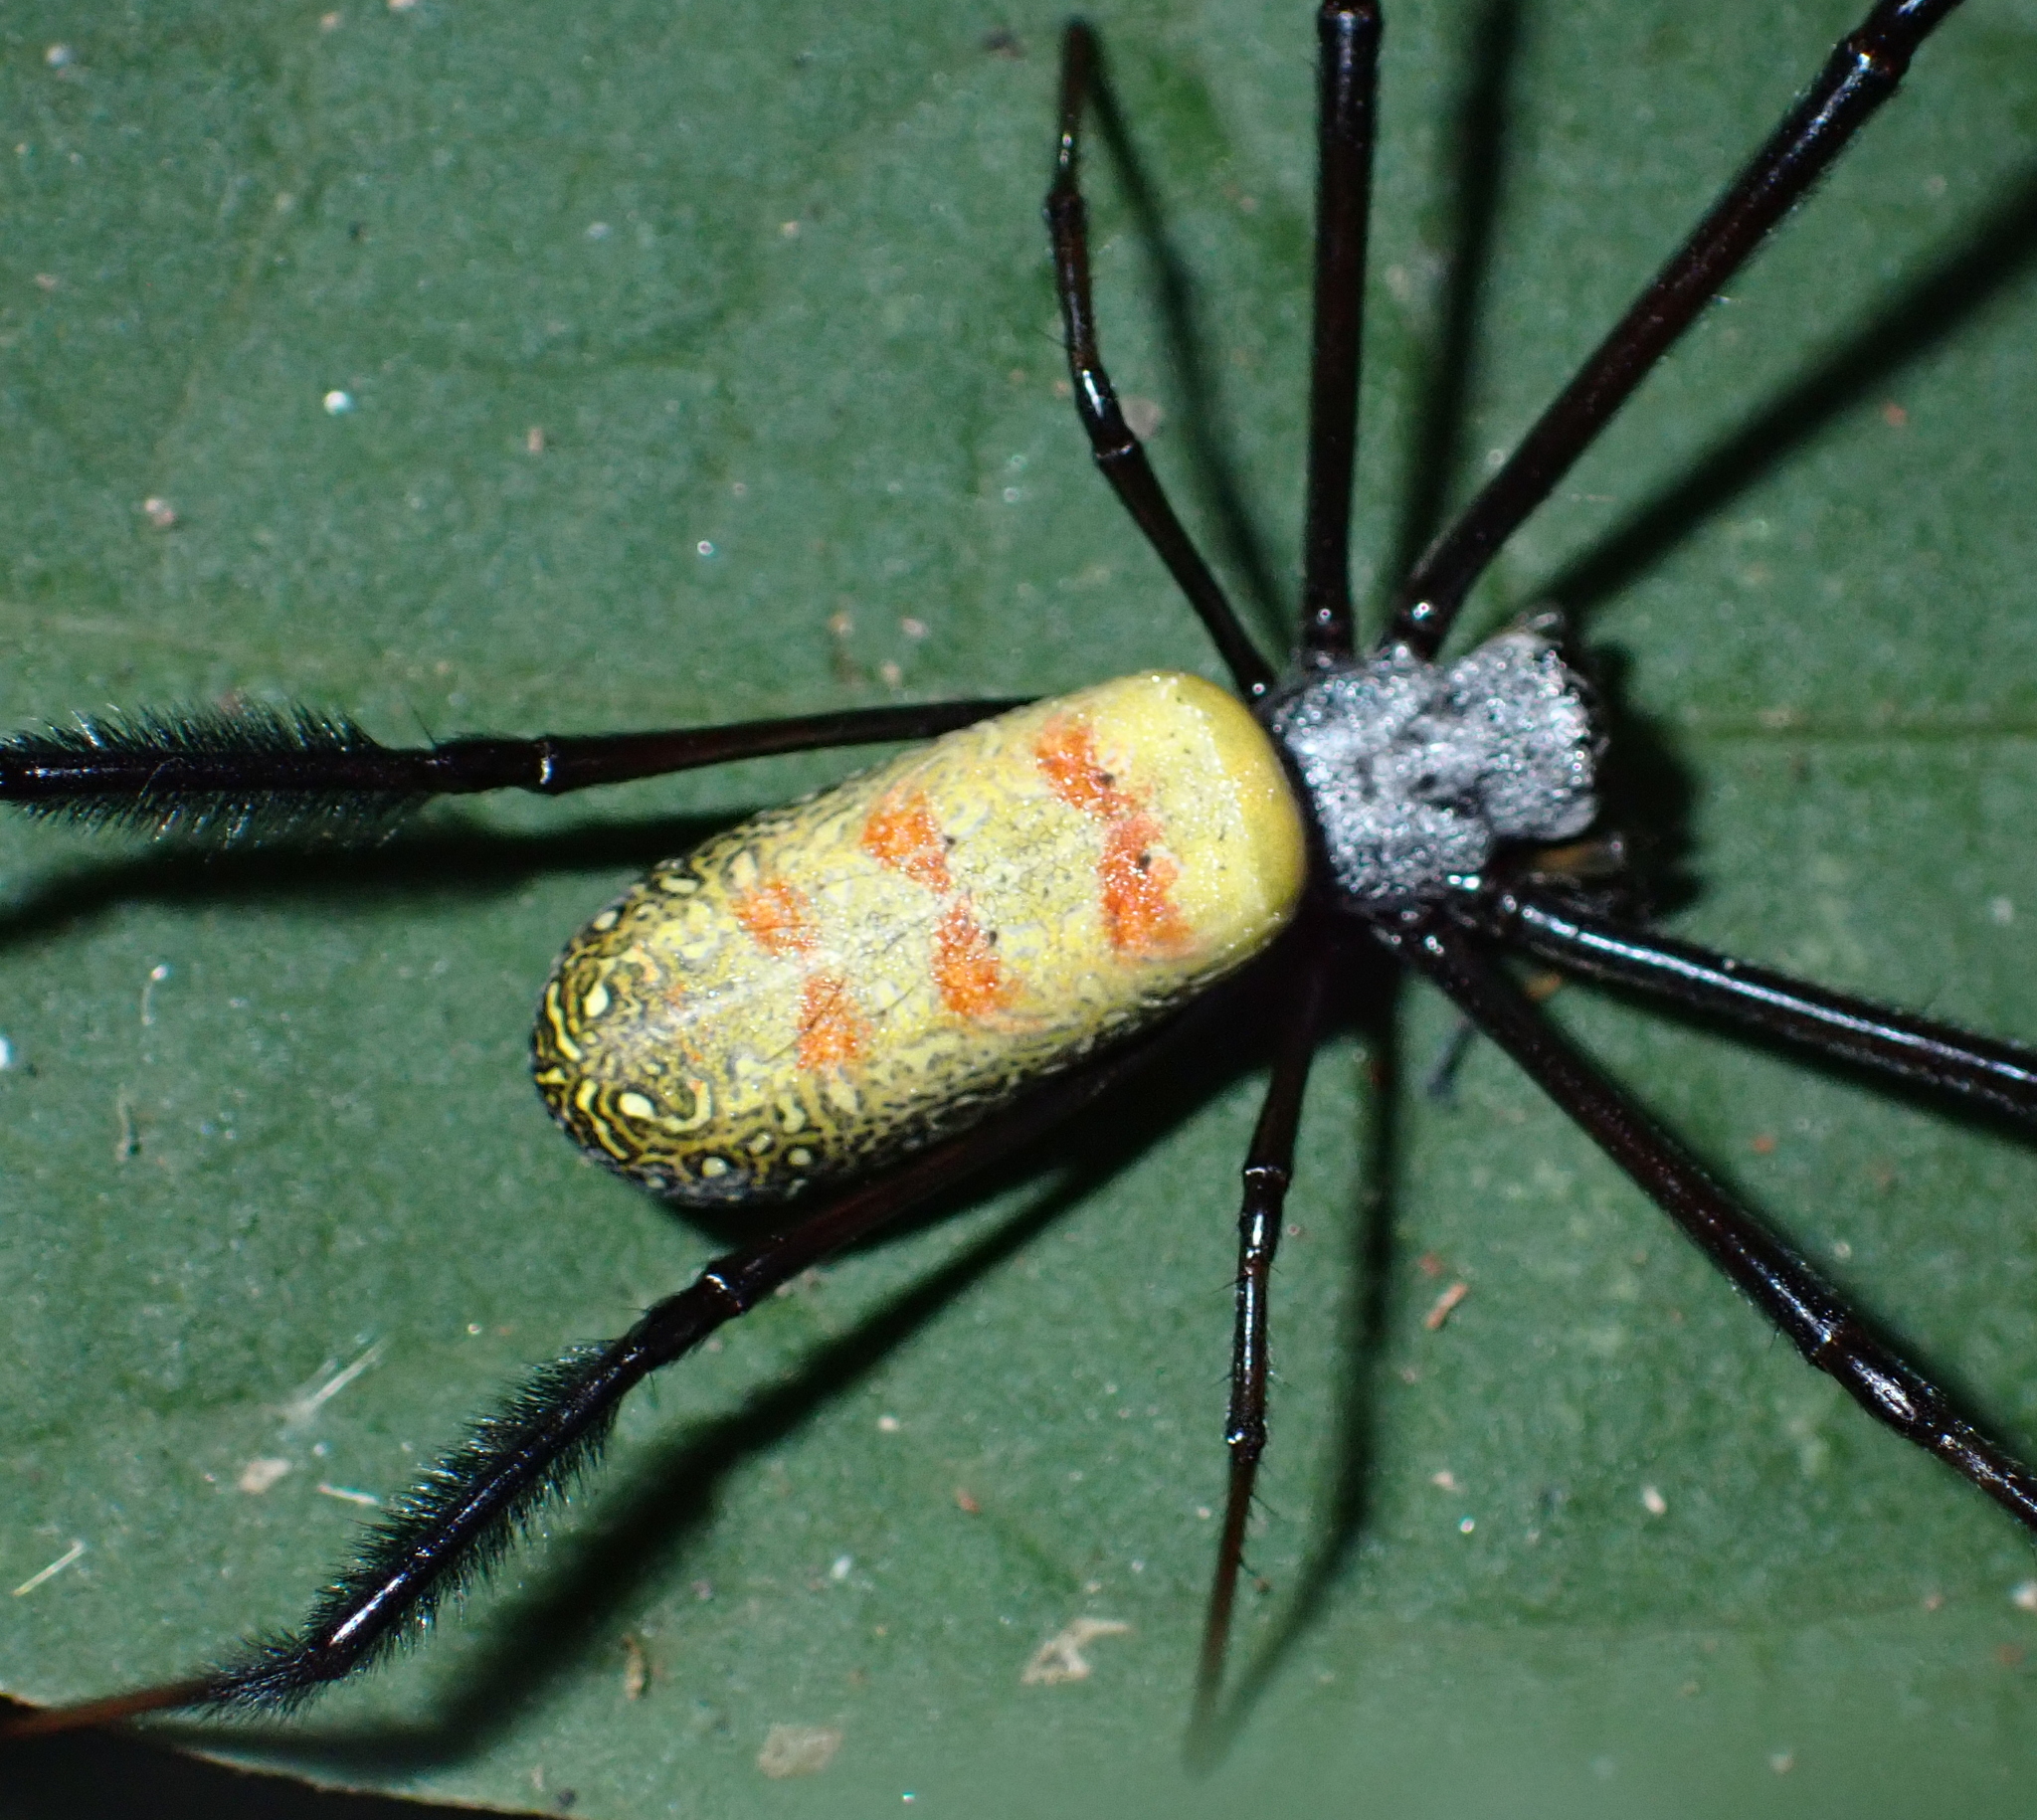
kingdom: Animalia
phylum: Arthropoda
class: Arachnida
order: Araneae
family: Araneidae
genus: Trichonephila
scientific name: Trichonephila fenestrata
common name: Hairy golden orb weaver
